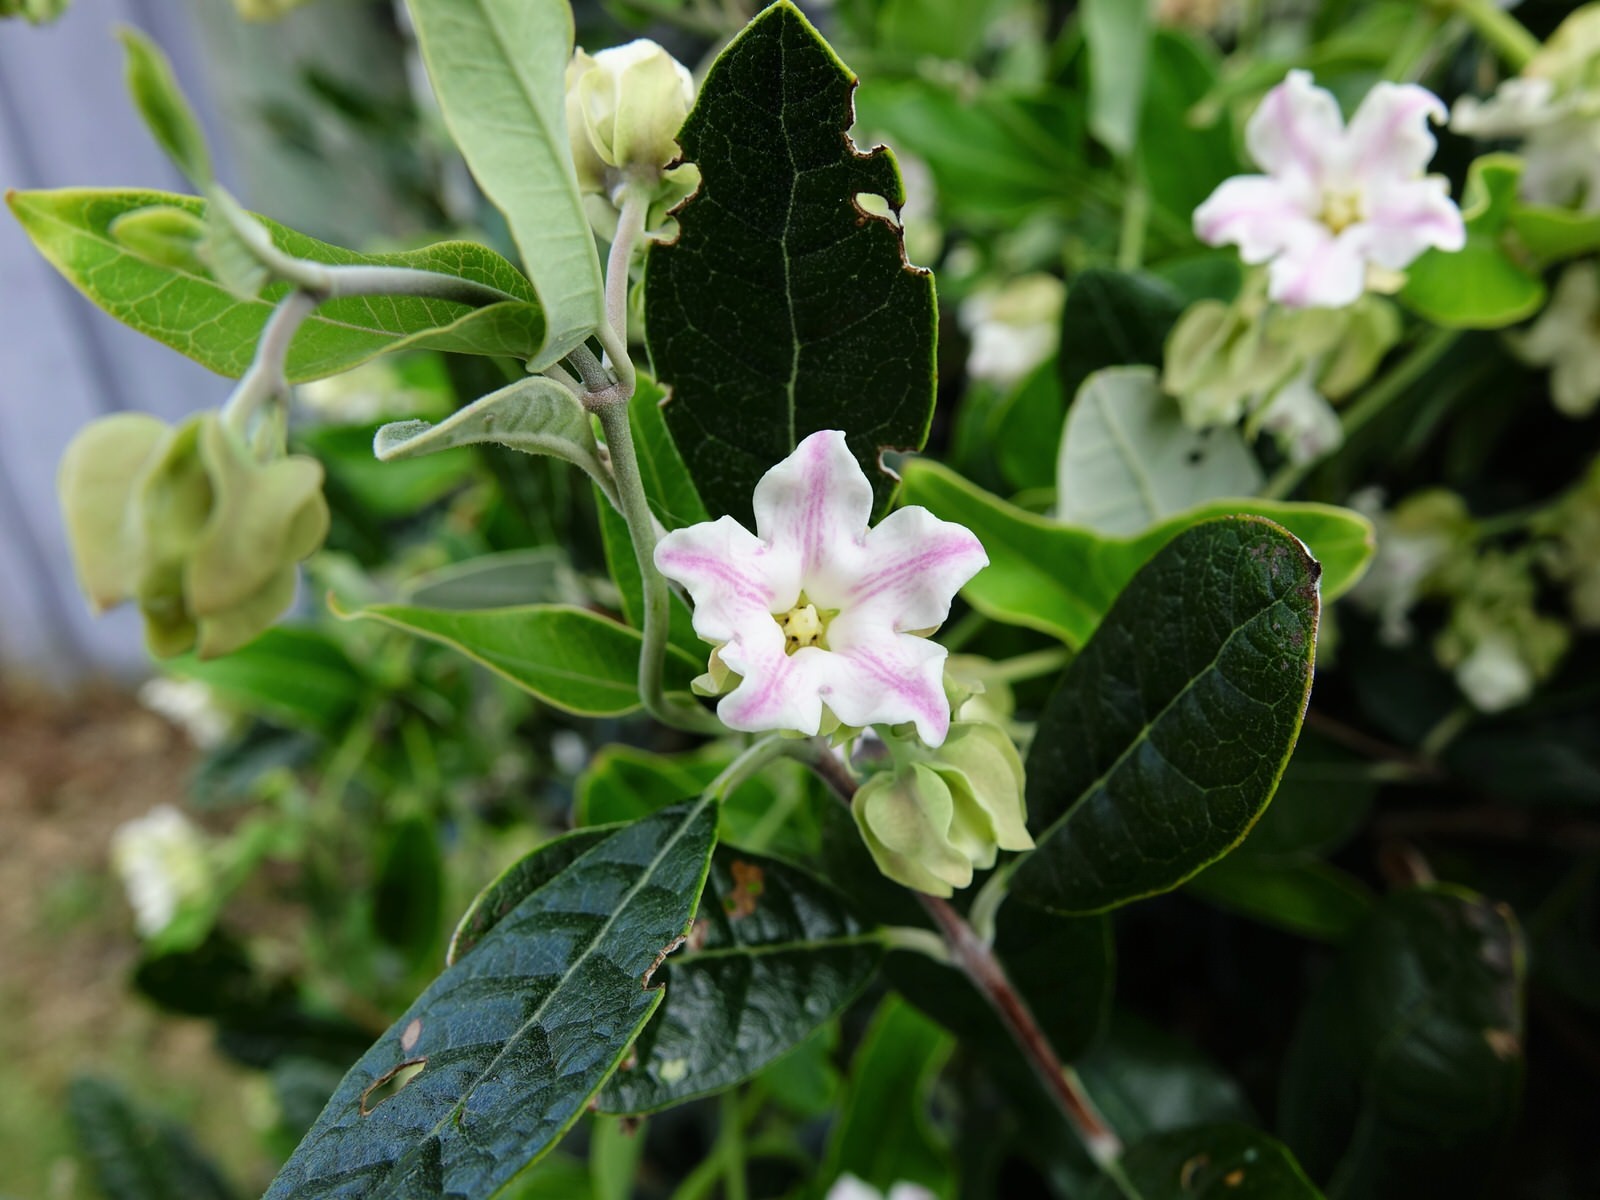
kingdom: Plantae
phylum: Tracheophyta
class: Magnoliopsida
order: Gentianales
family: Apocynaceae
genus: Araujia
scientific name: Araujia sericifera
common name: White bladderflower
